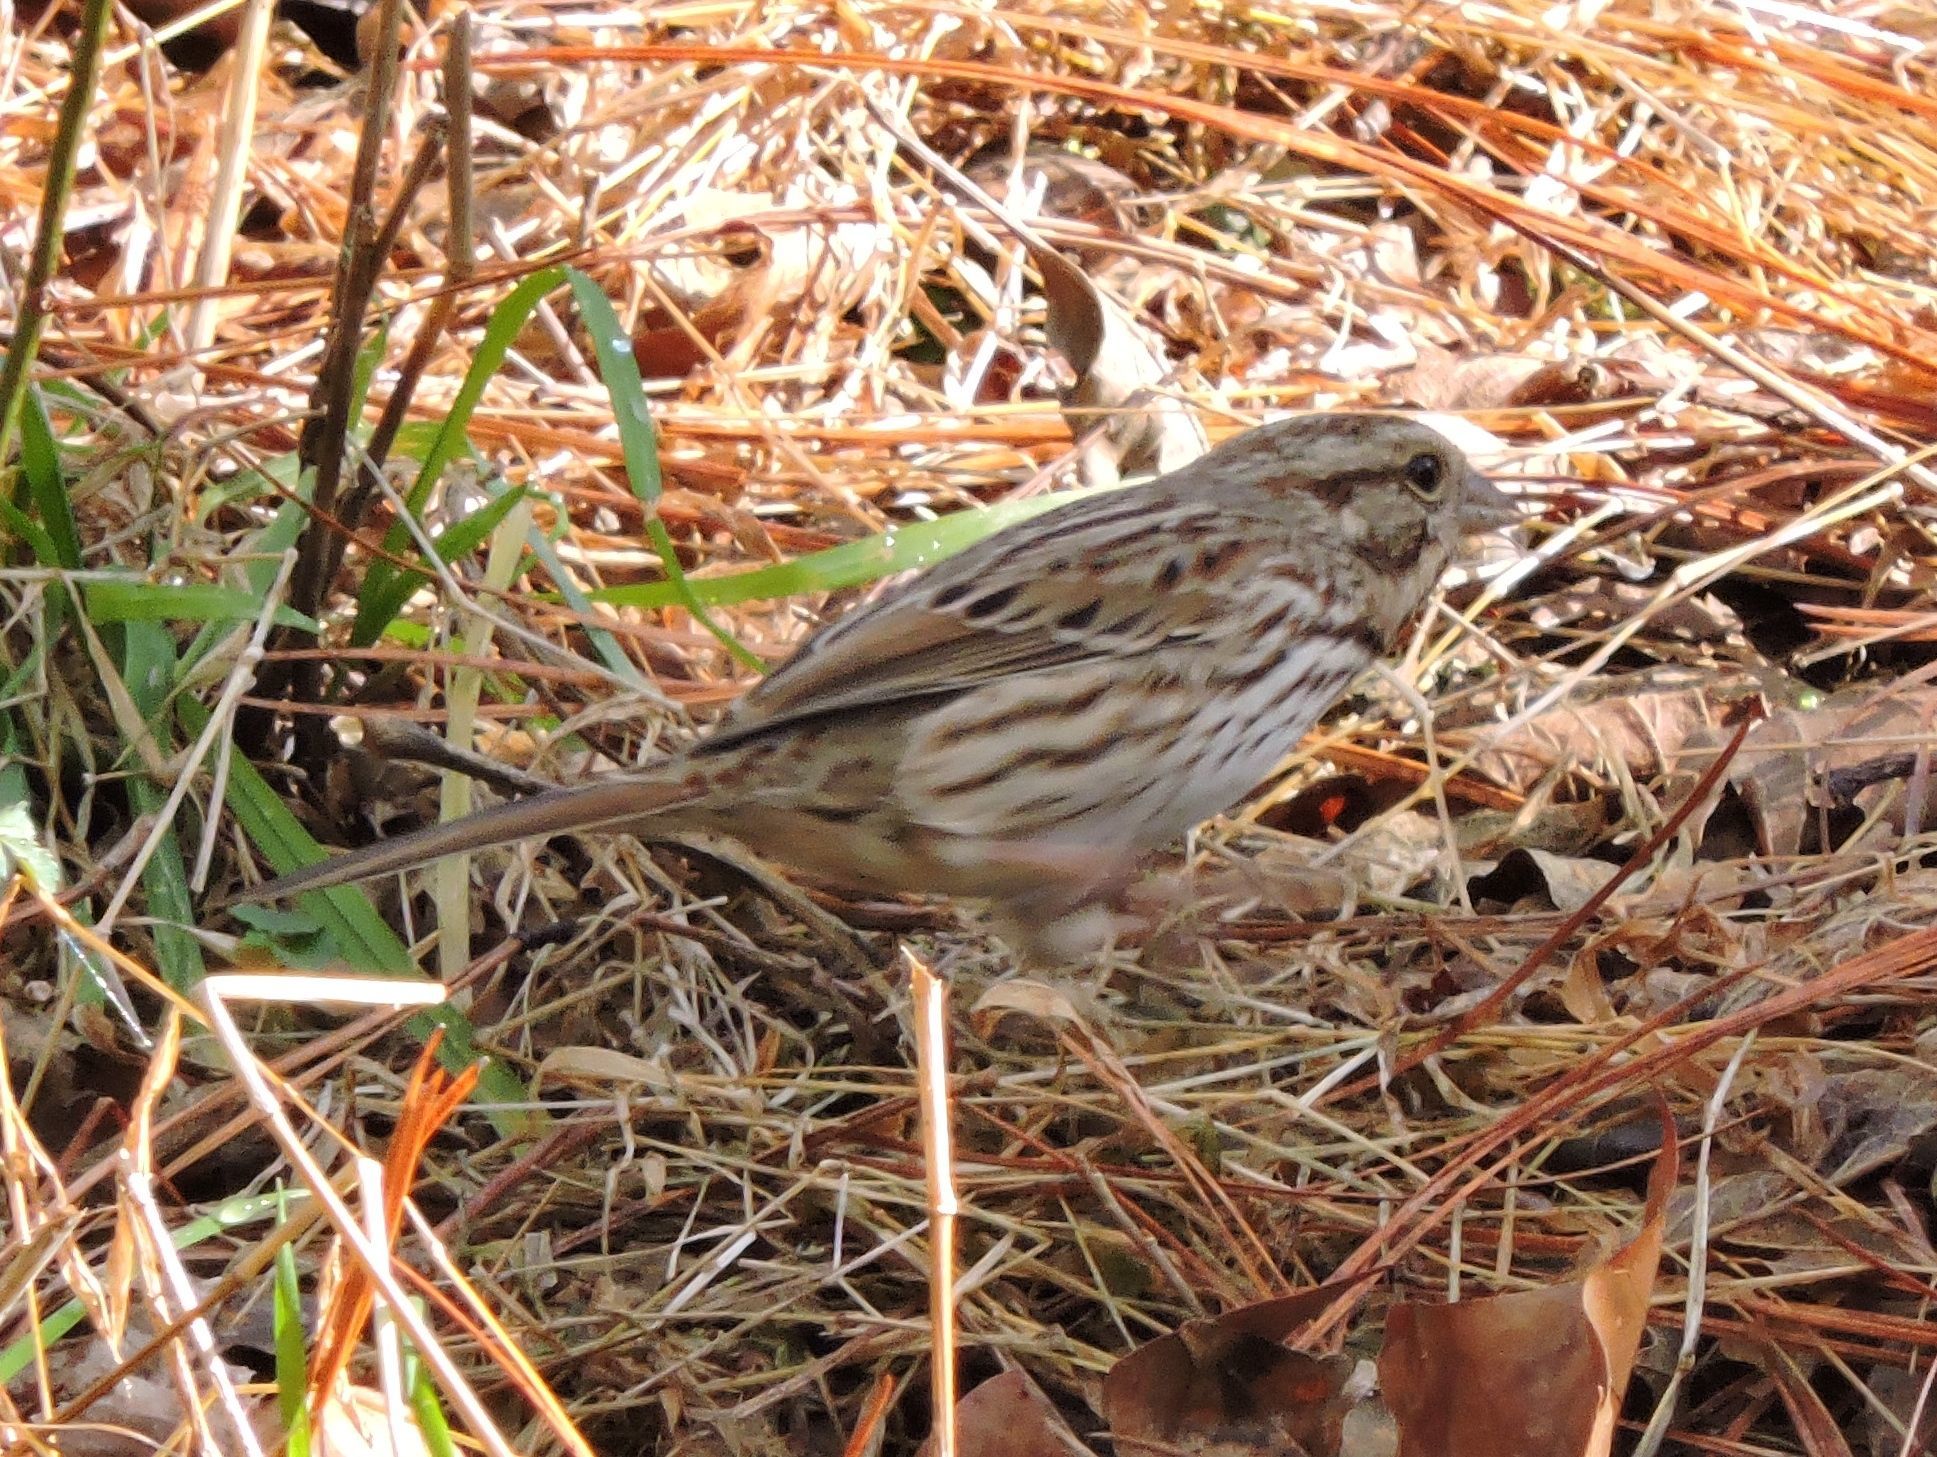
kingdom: Animalia
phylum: Chordata
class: Aves
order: Passeriformes
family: Passerellidae
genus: Melospiza
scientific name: Melospiza melodia
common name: Song sparrow
